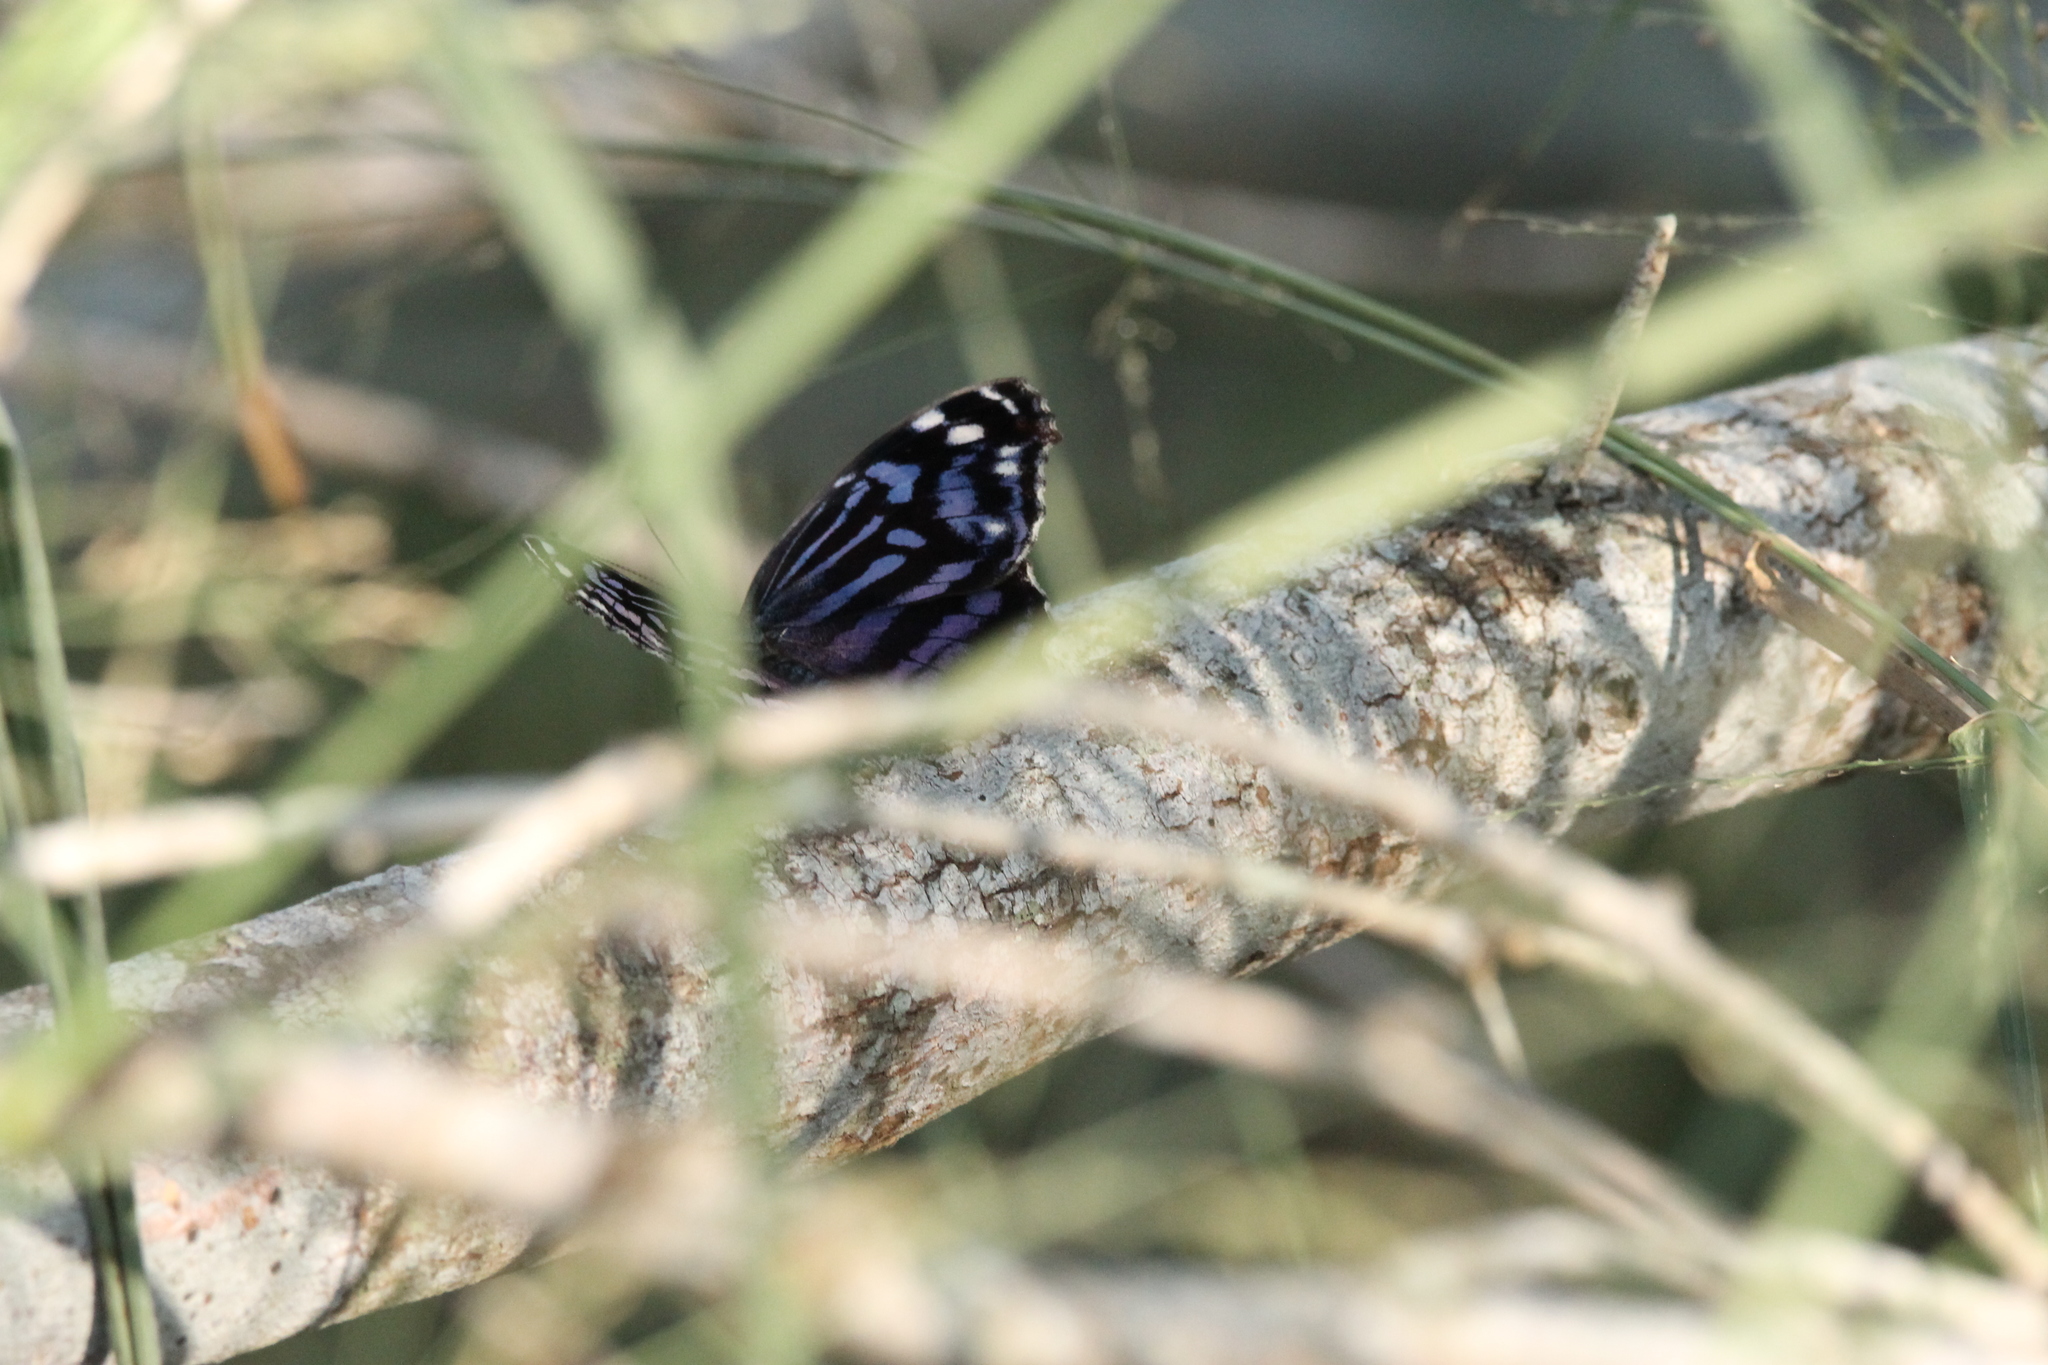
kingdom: Animalia
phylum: Arthropoda
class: Insecta
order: Lepidoptera
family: Nymphalidae
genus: Myscelia
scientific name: Myscelia ethusa
